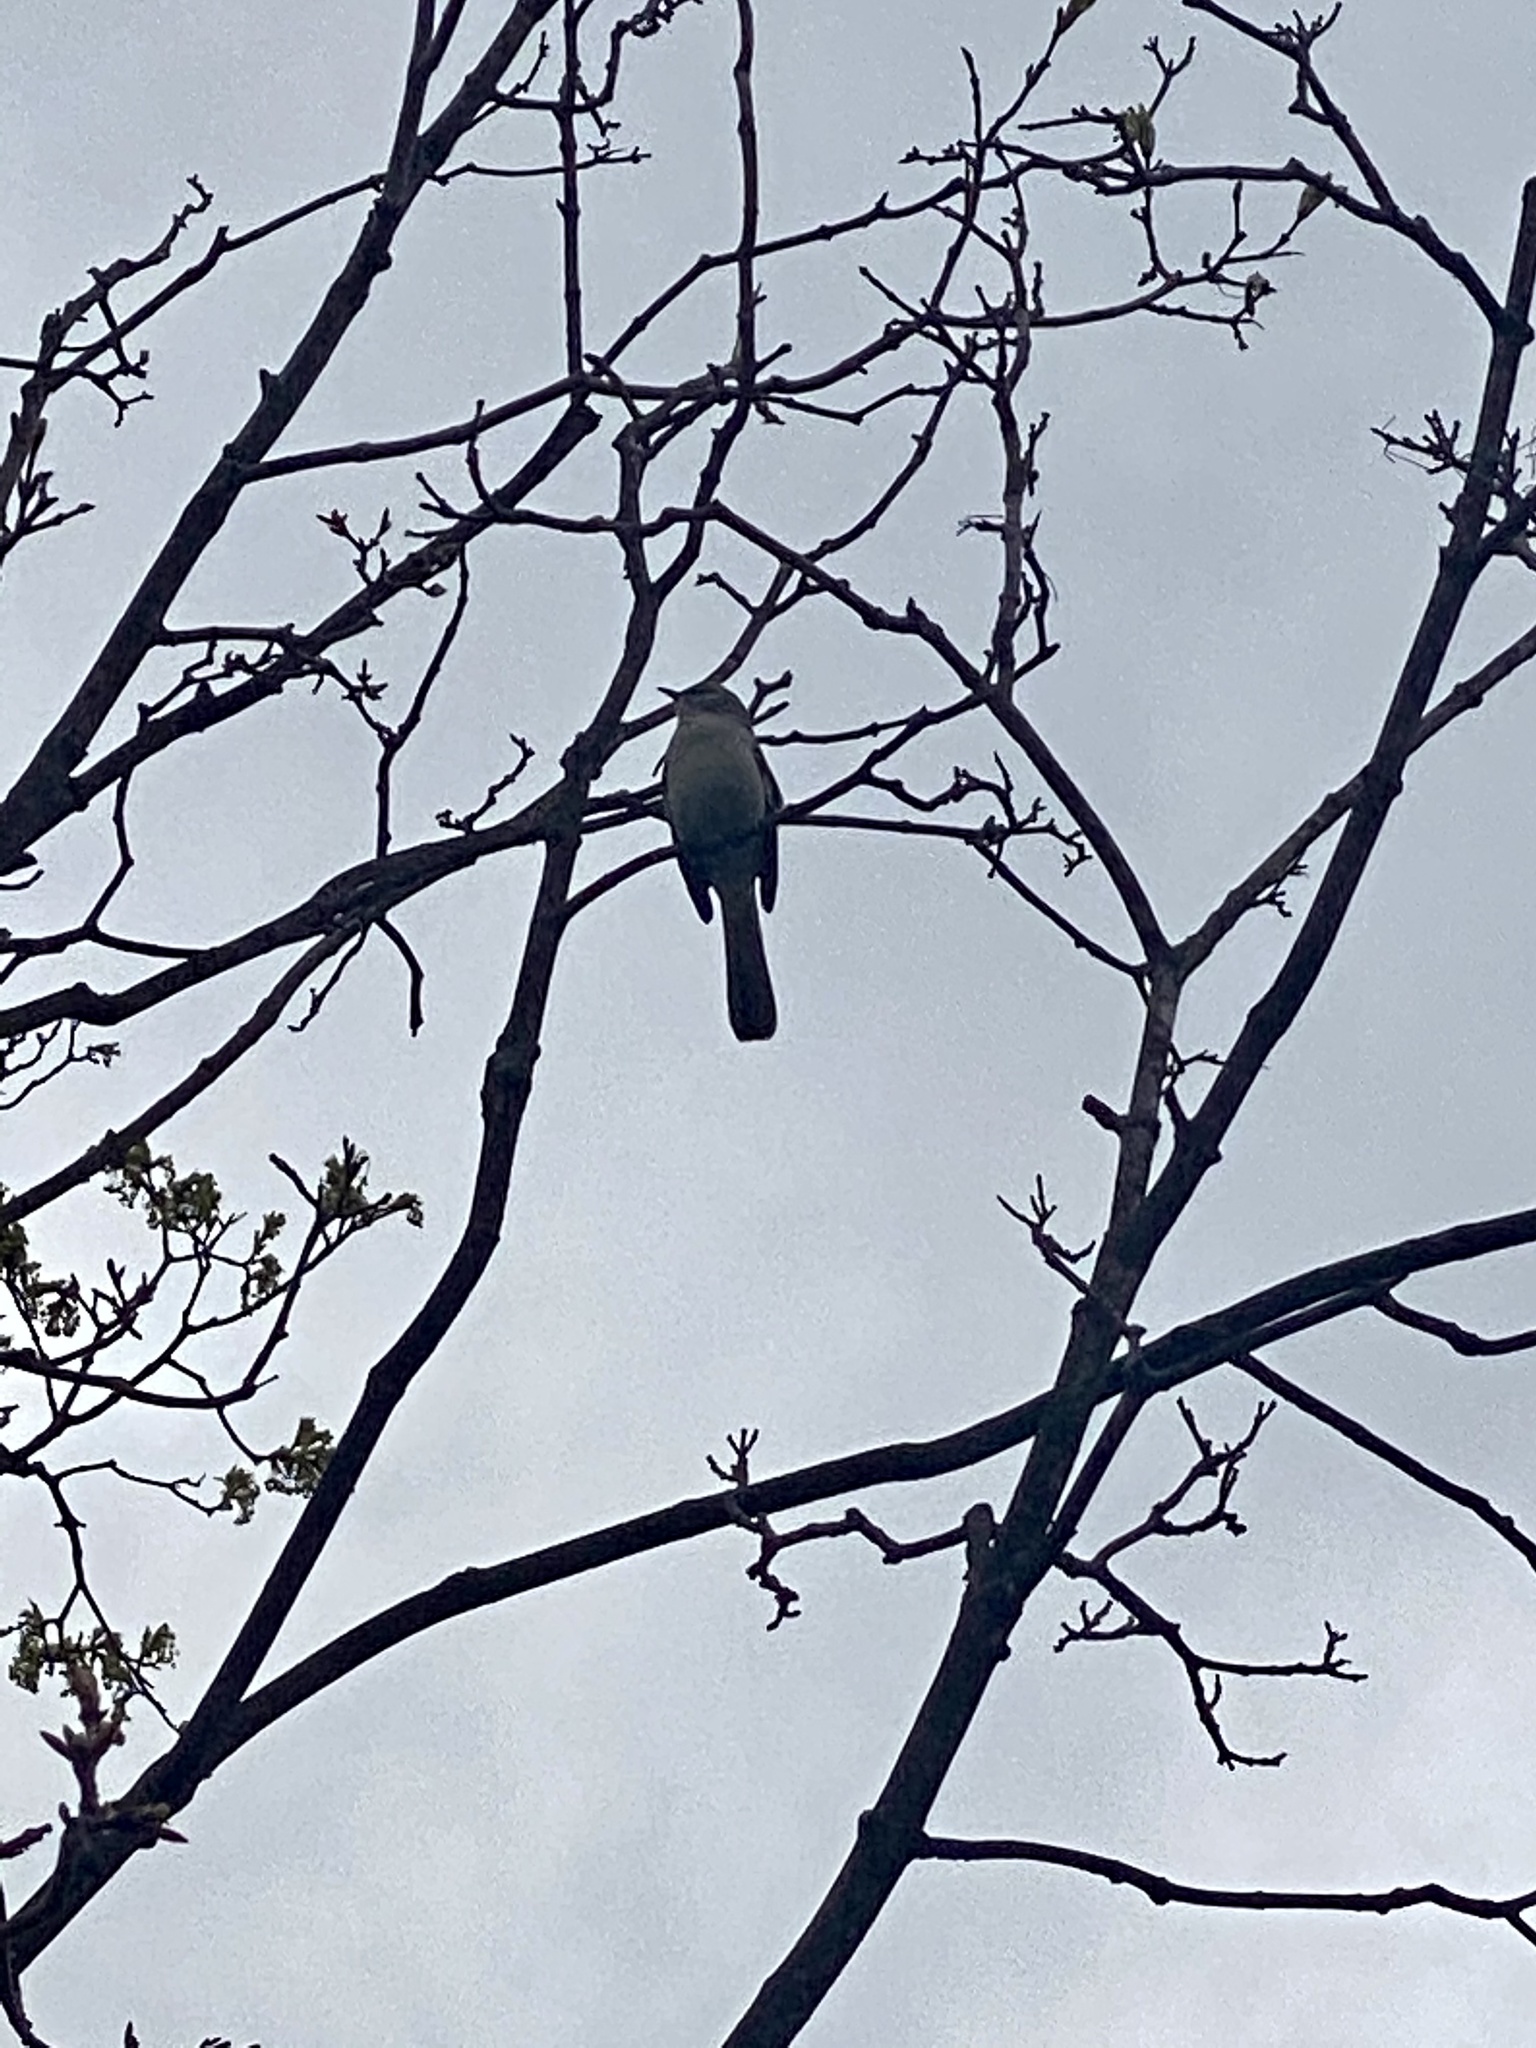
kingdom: Animalia
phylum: Chordata
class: Aves
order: Passeriformes
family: Mimidae
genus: Mimus
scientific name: Mimus polyglottos
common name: Northern mockingbird
